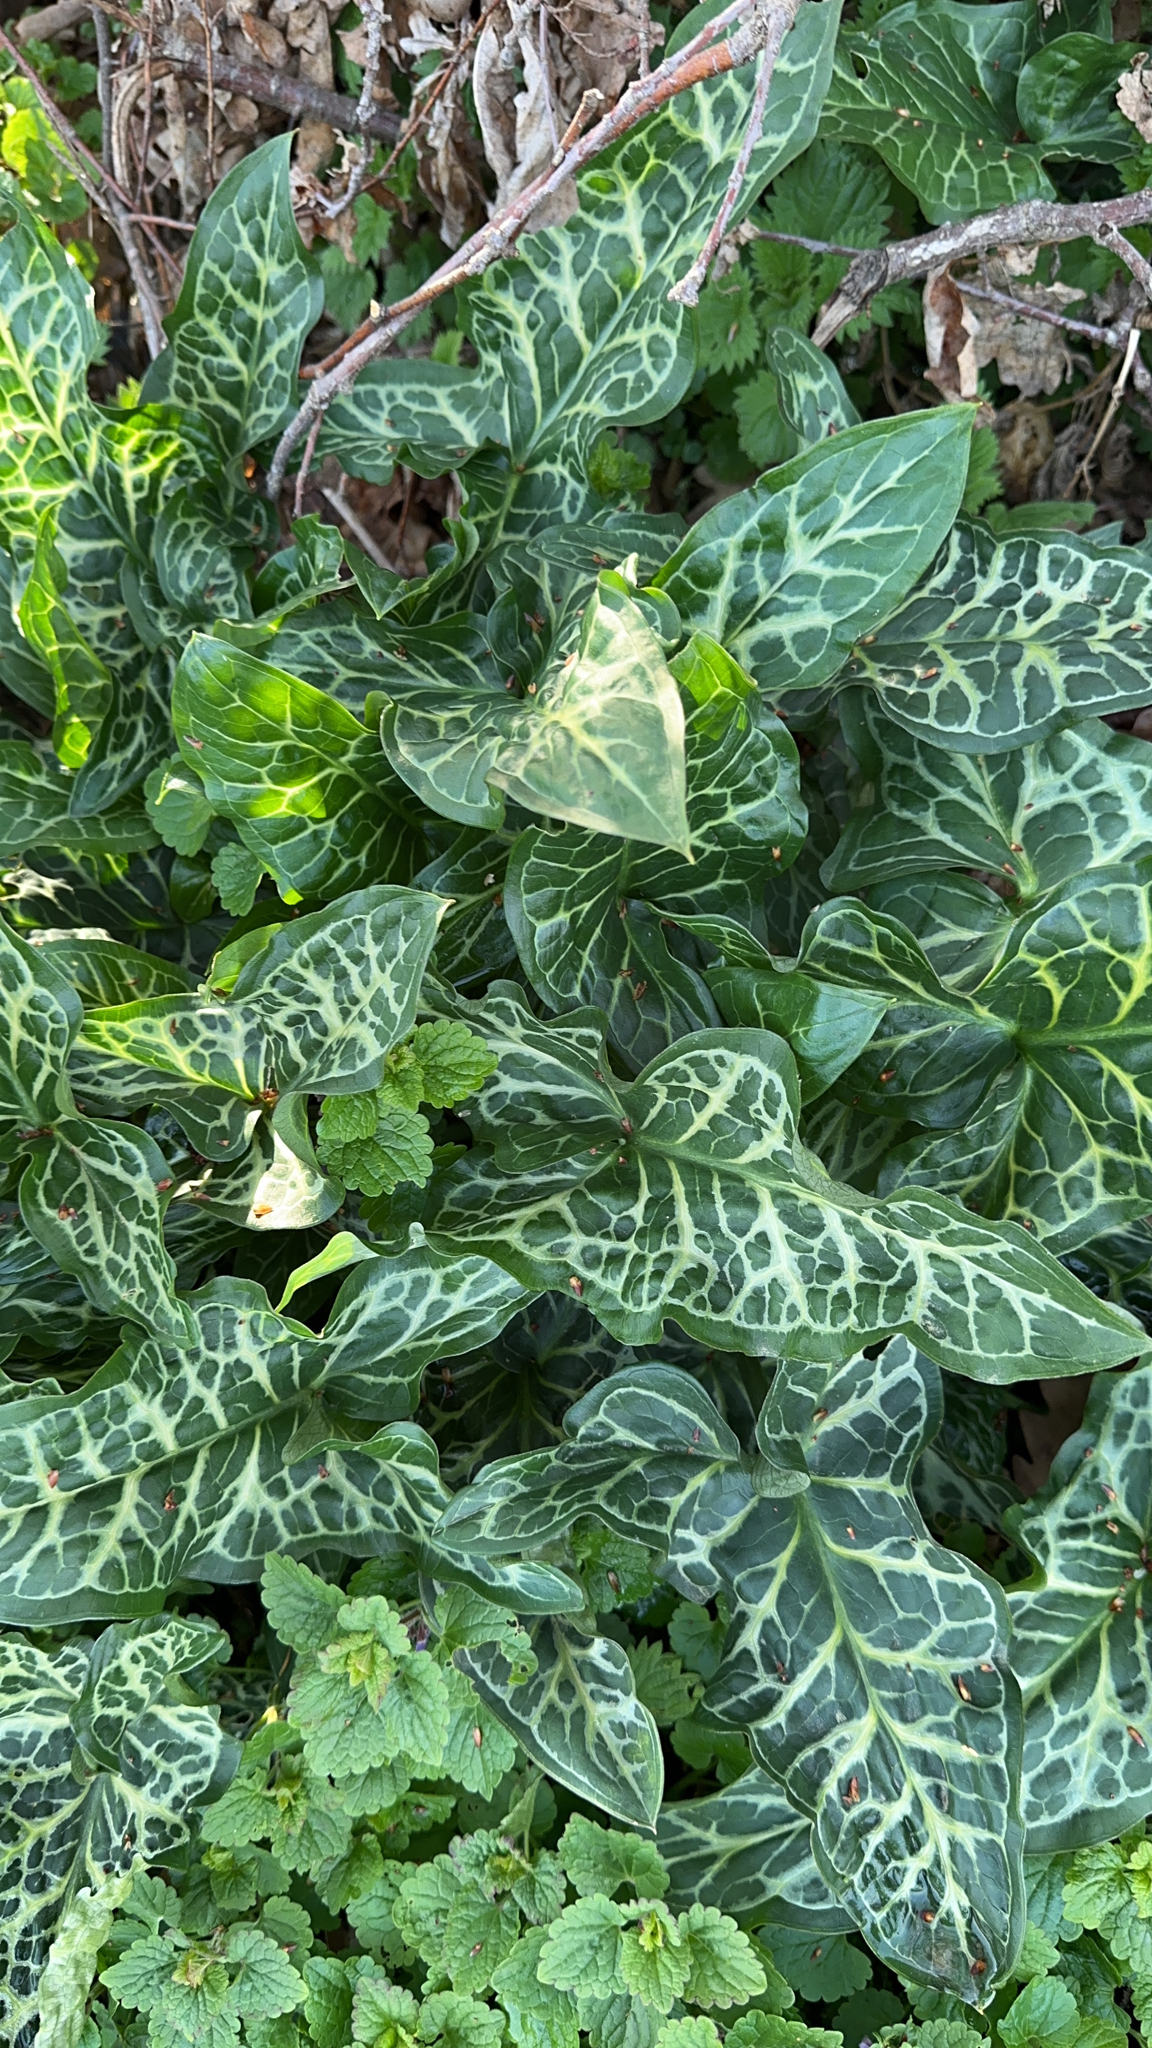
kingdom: Plantae
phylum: Tracheophyta
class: Liliopsida
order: Alismatales
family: Araceae
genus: Arum
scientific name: Arum italicum
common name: Italian lords-and-ladies
